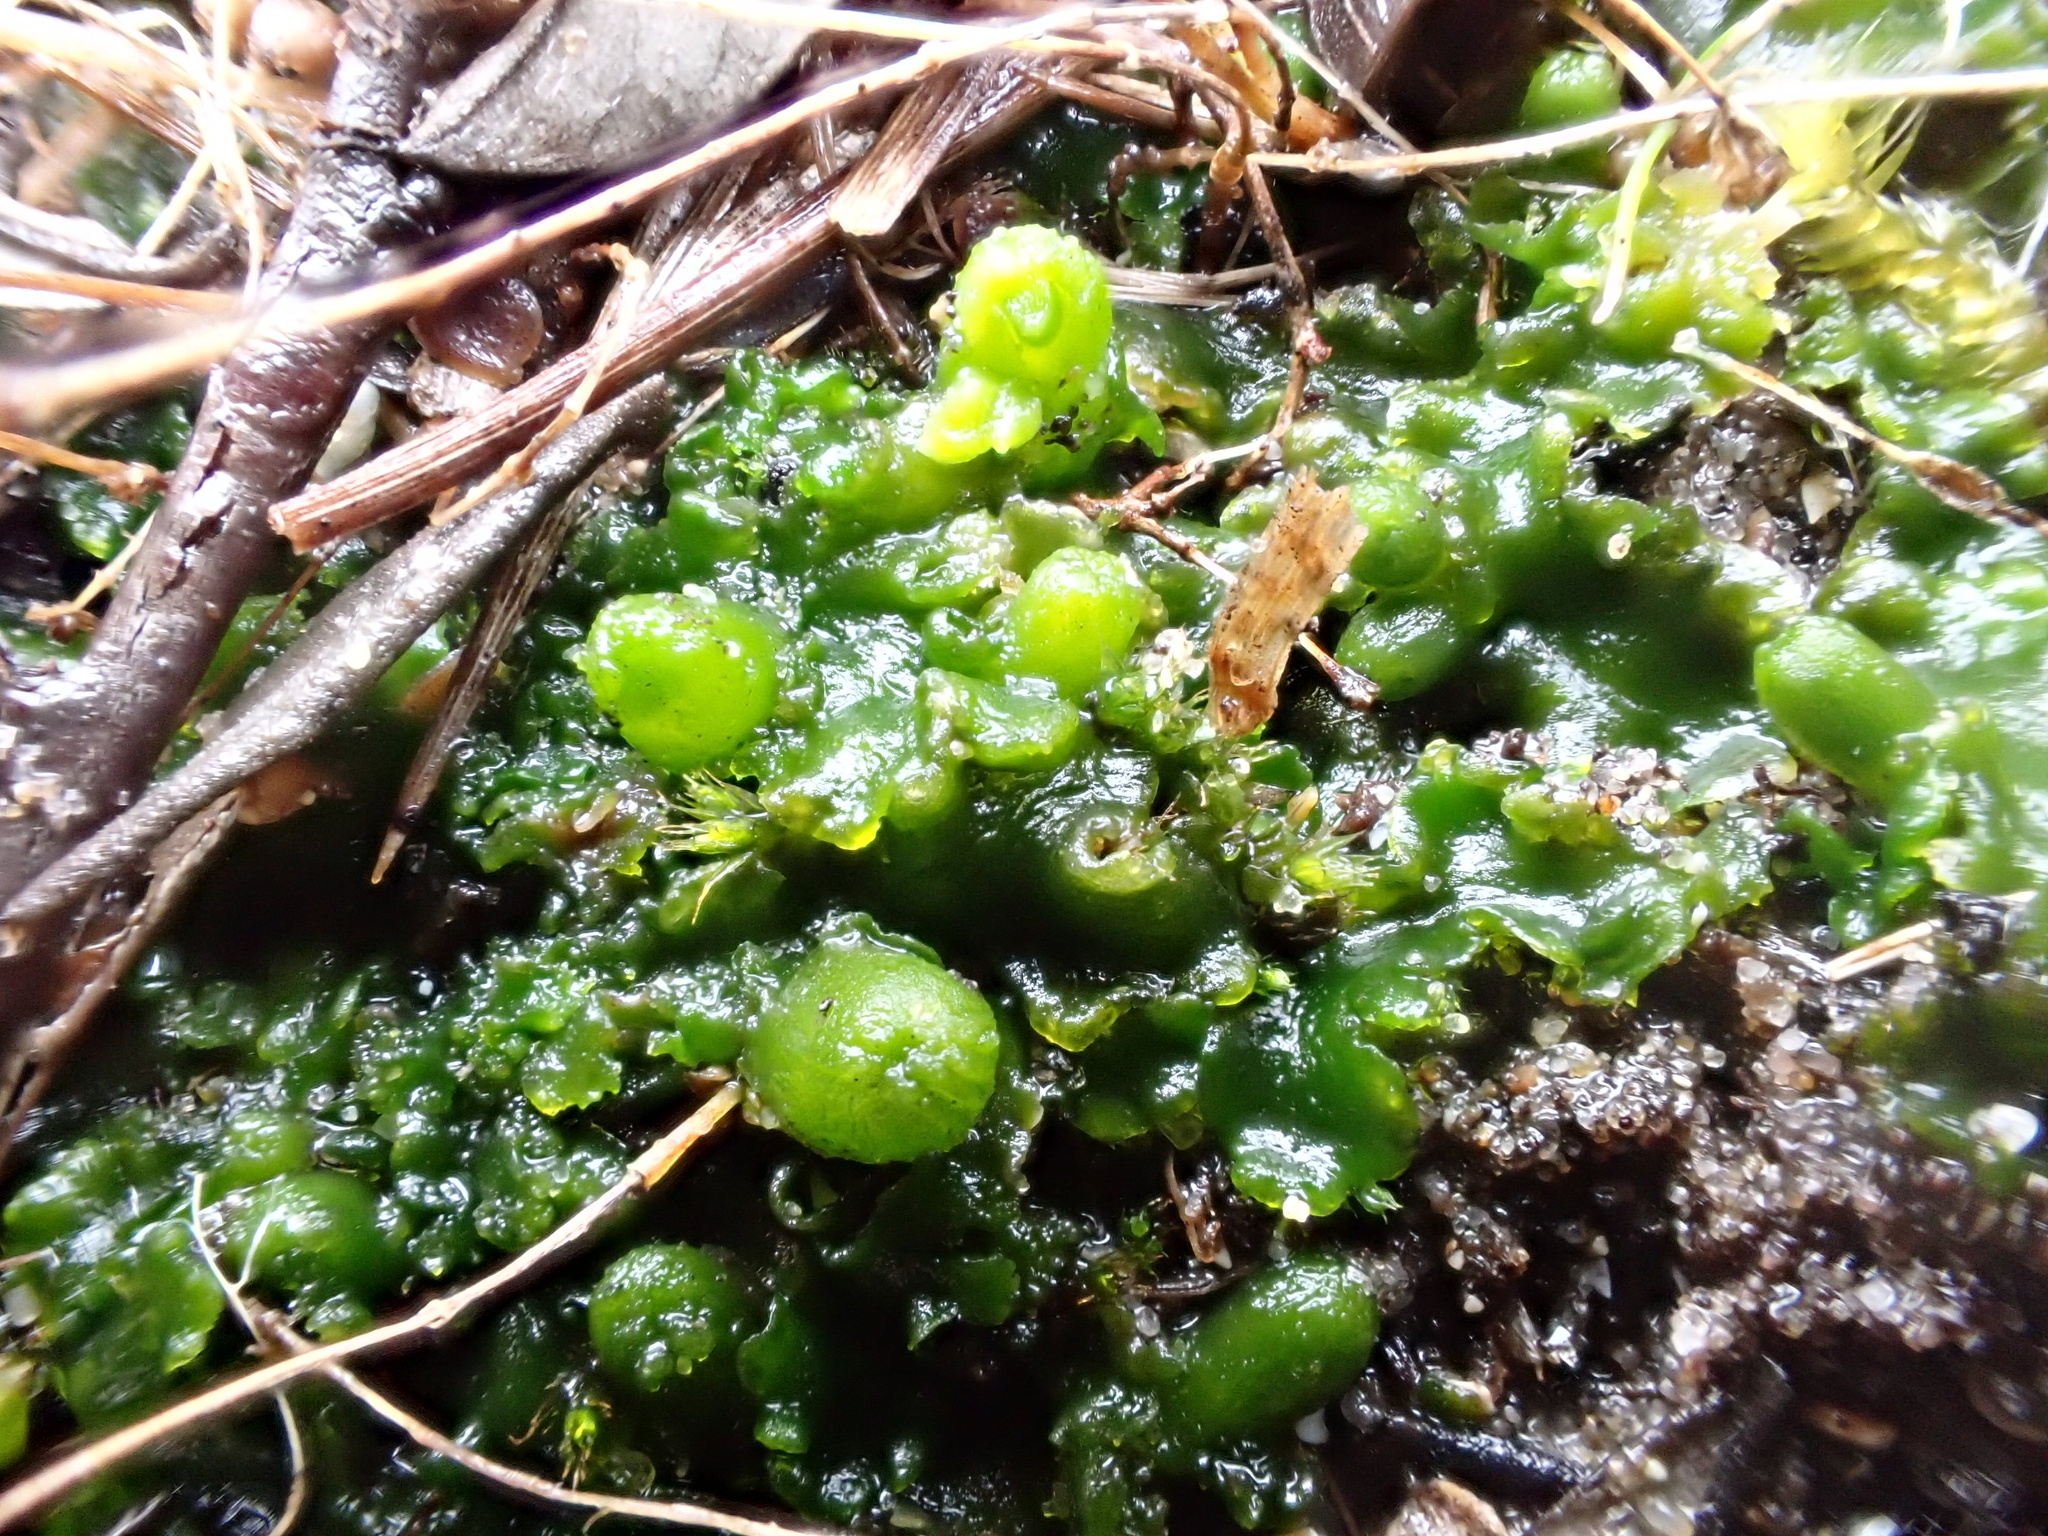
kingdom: Plantae
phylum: Marchantiophyta
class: Jungermanniopsida
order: Metzgeriales
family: Aneuraceae
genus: Aneura
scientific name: Aneura pinguis
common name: Common greasewort
